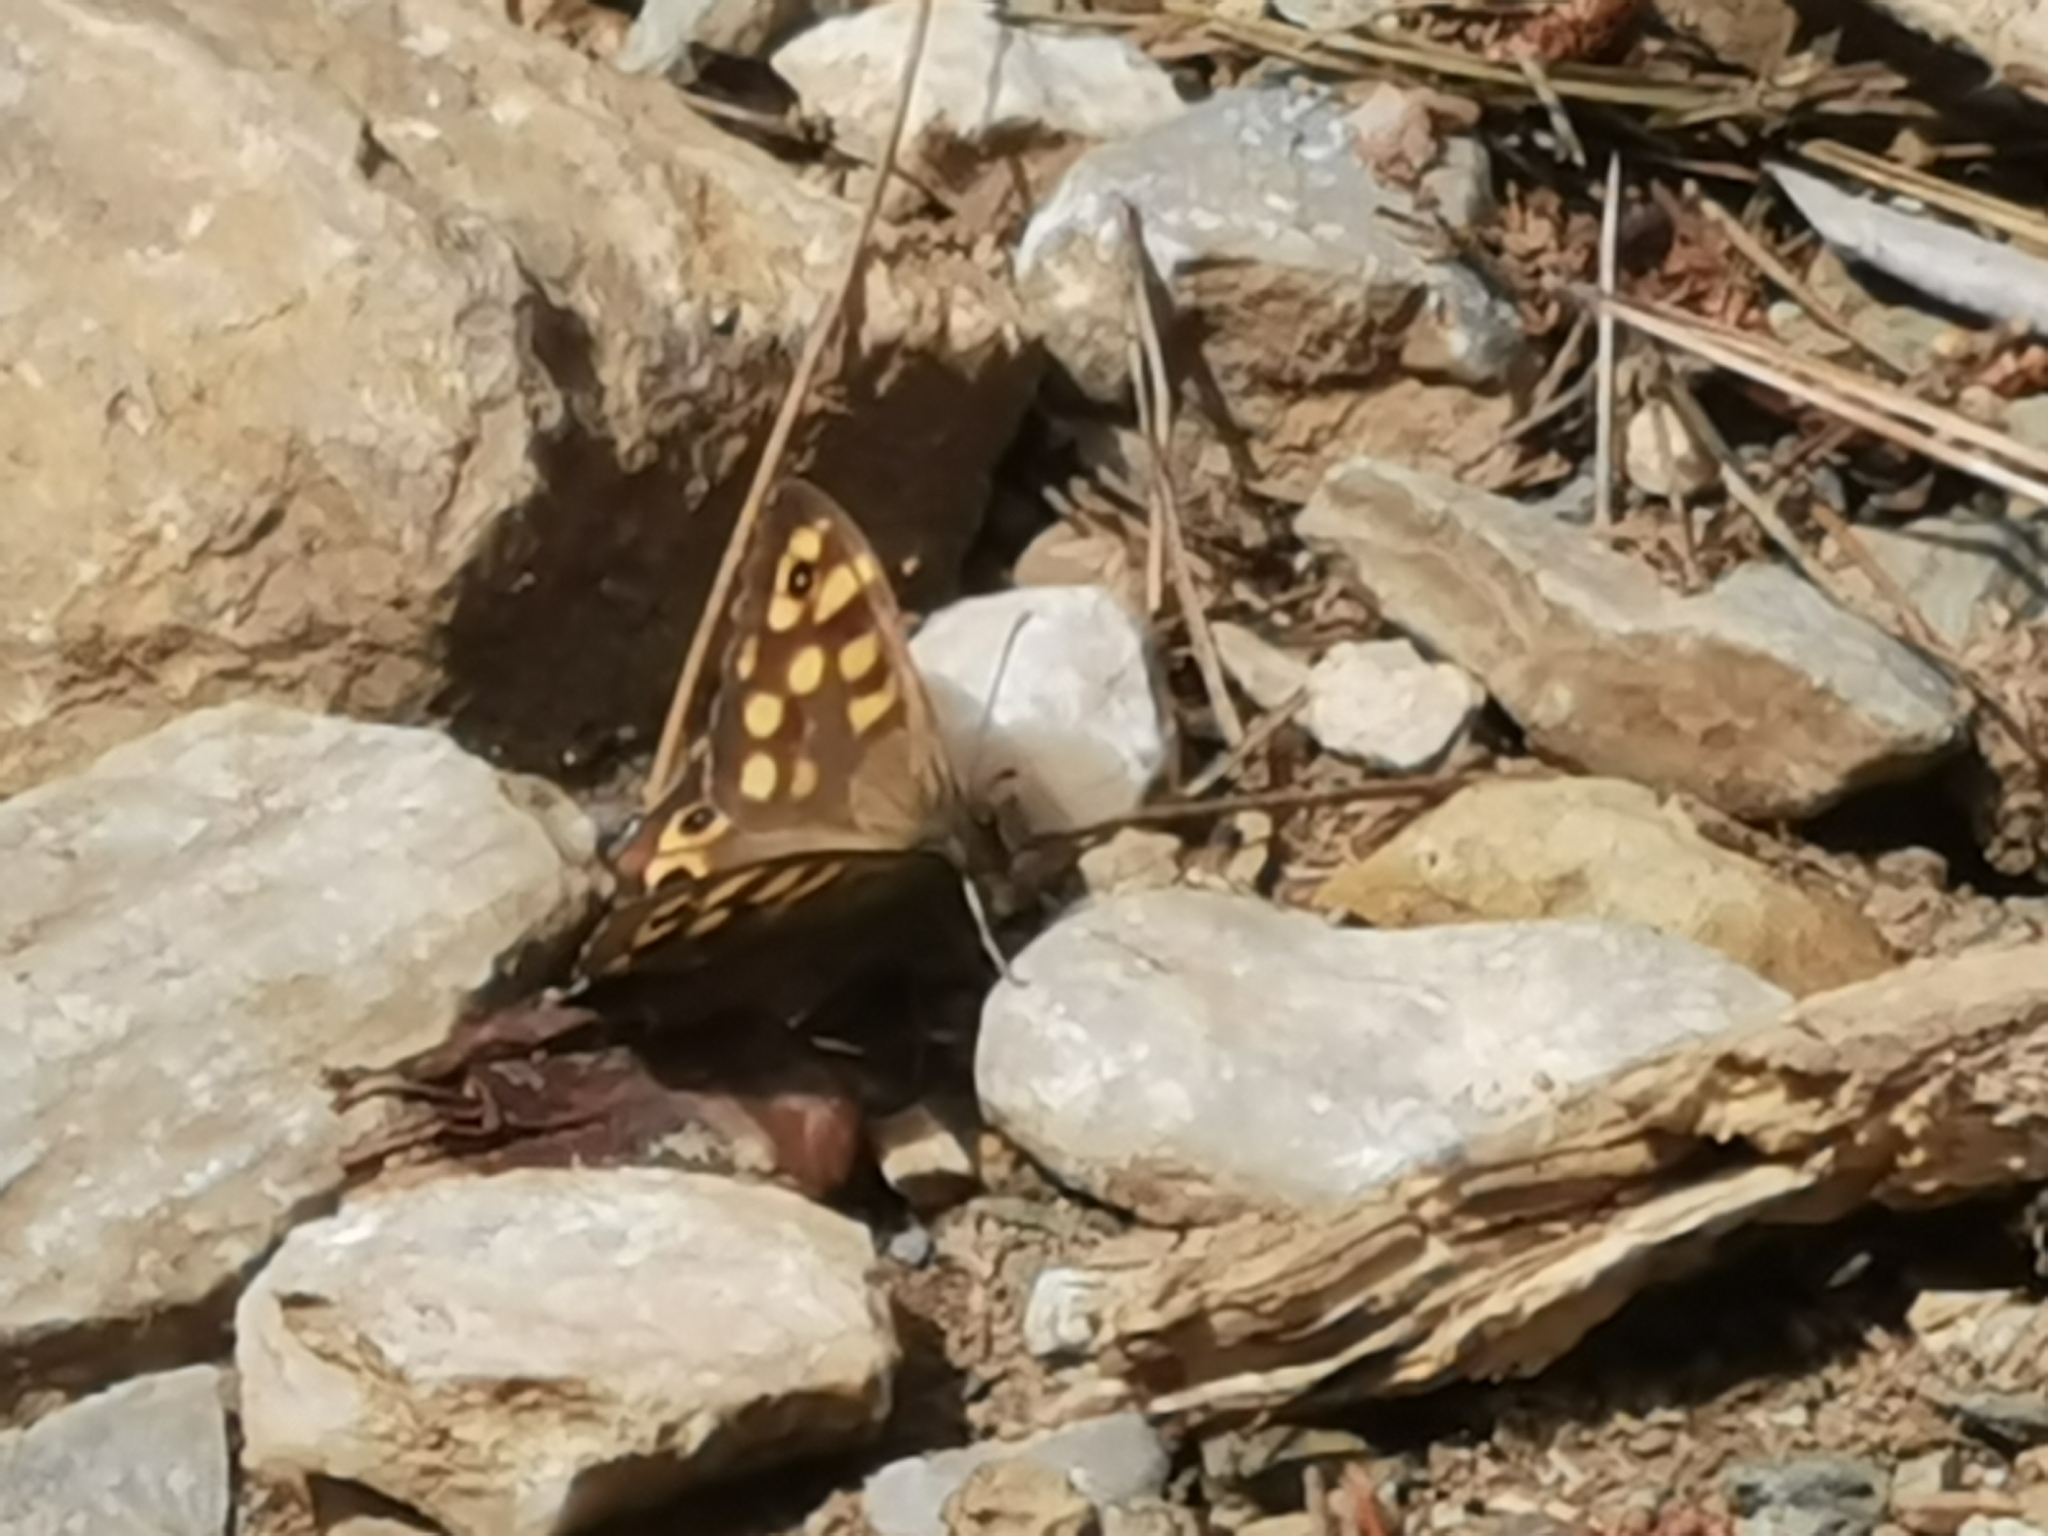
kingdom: Animalia
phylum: Arthropoda
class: Insecta
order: Lepidoptera
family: Nymphalidae
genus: Pararge
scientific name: Pararge aegeria
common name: Speckled wood
